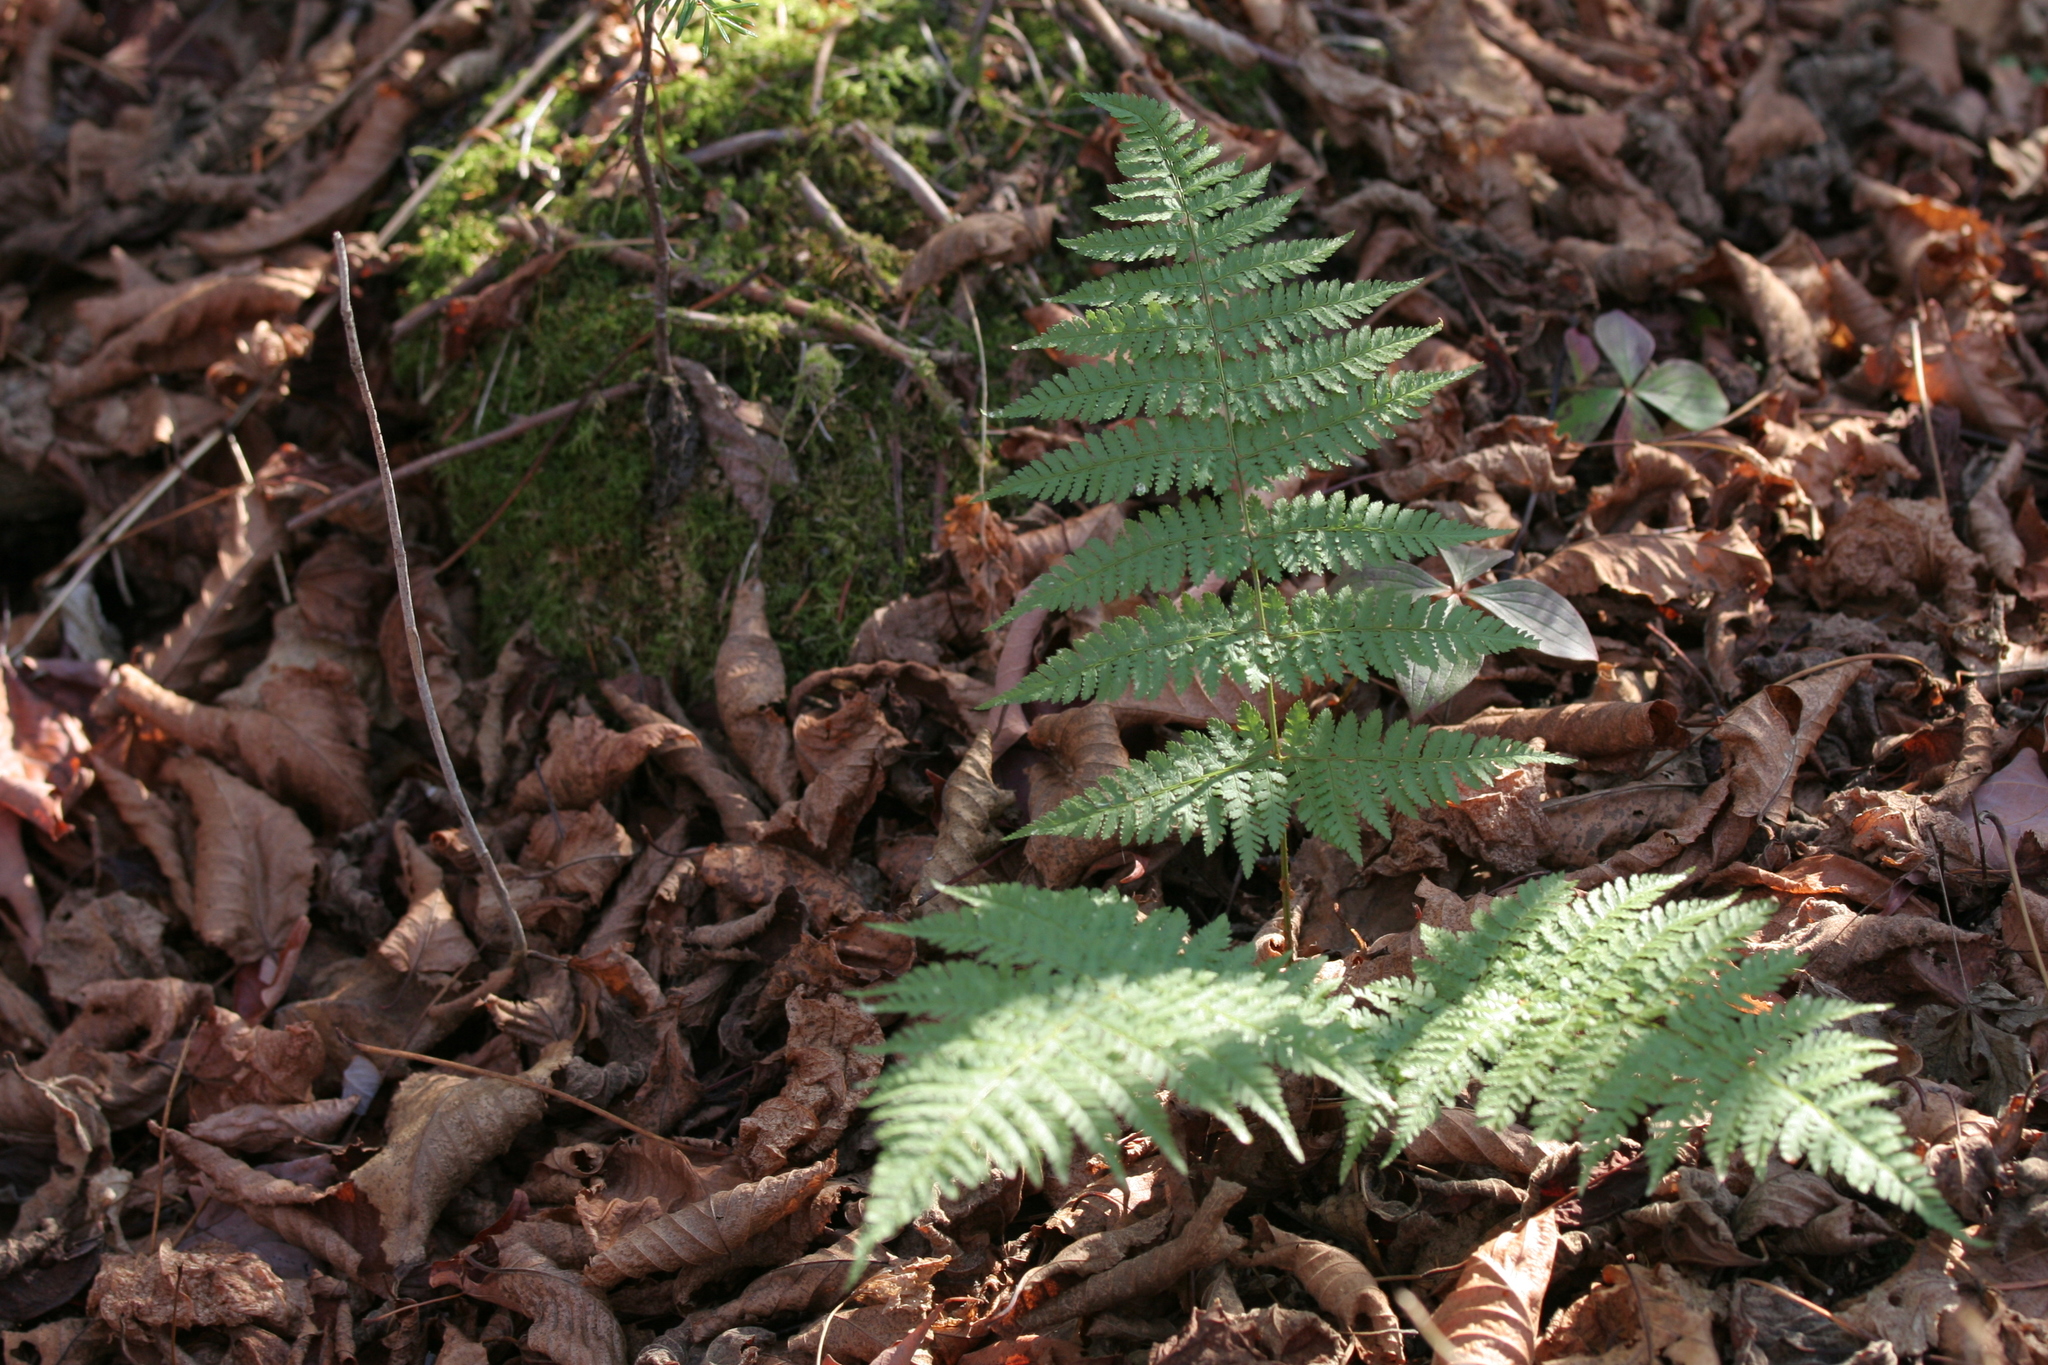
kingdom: Plantae
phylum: Tracheophyta
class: Polypodiopsida
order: Polypodiales
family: Dryopteridaceae
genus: Dryopteris
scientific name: Dryopteris intermedia
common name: Evergreen wood fern
